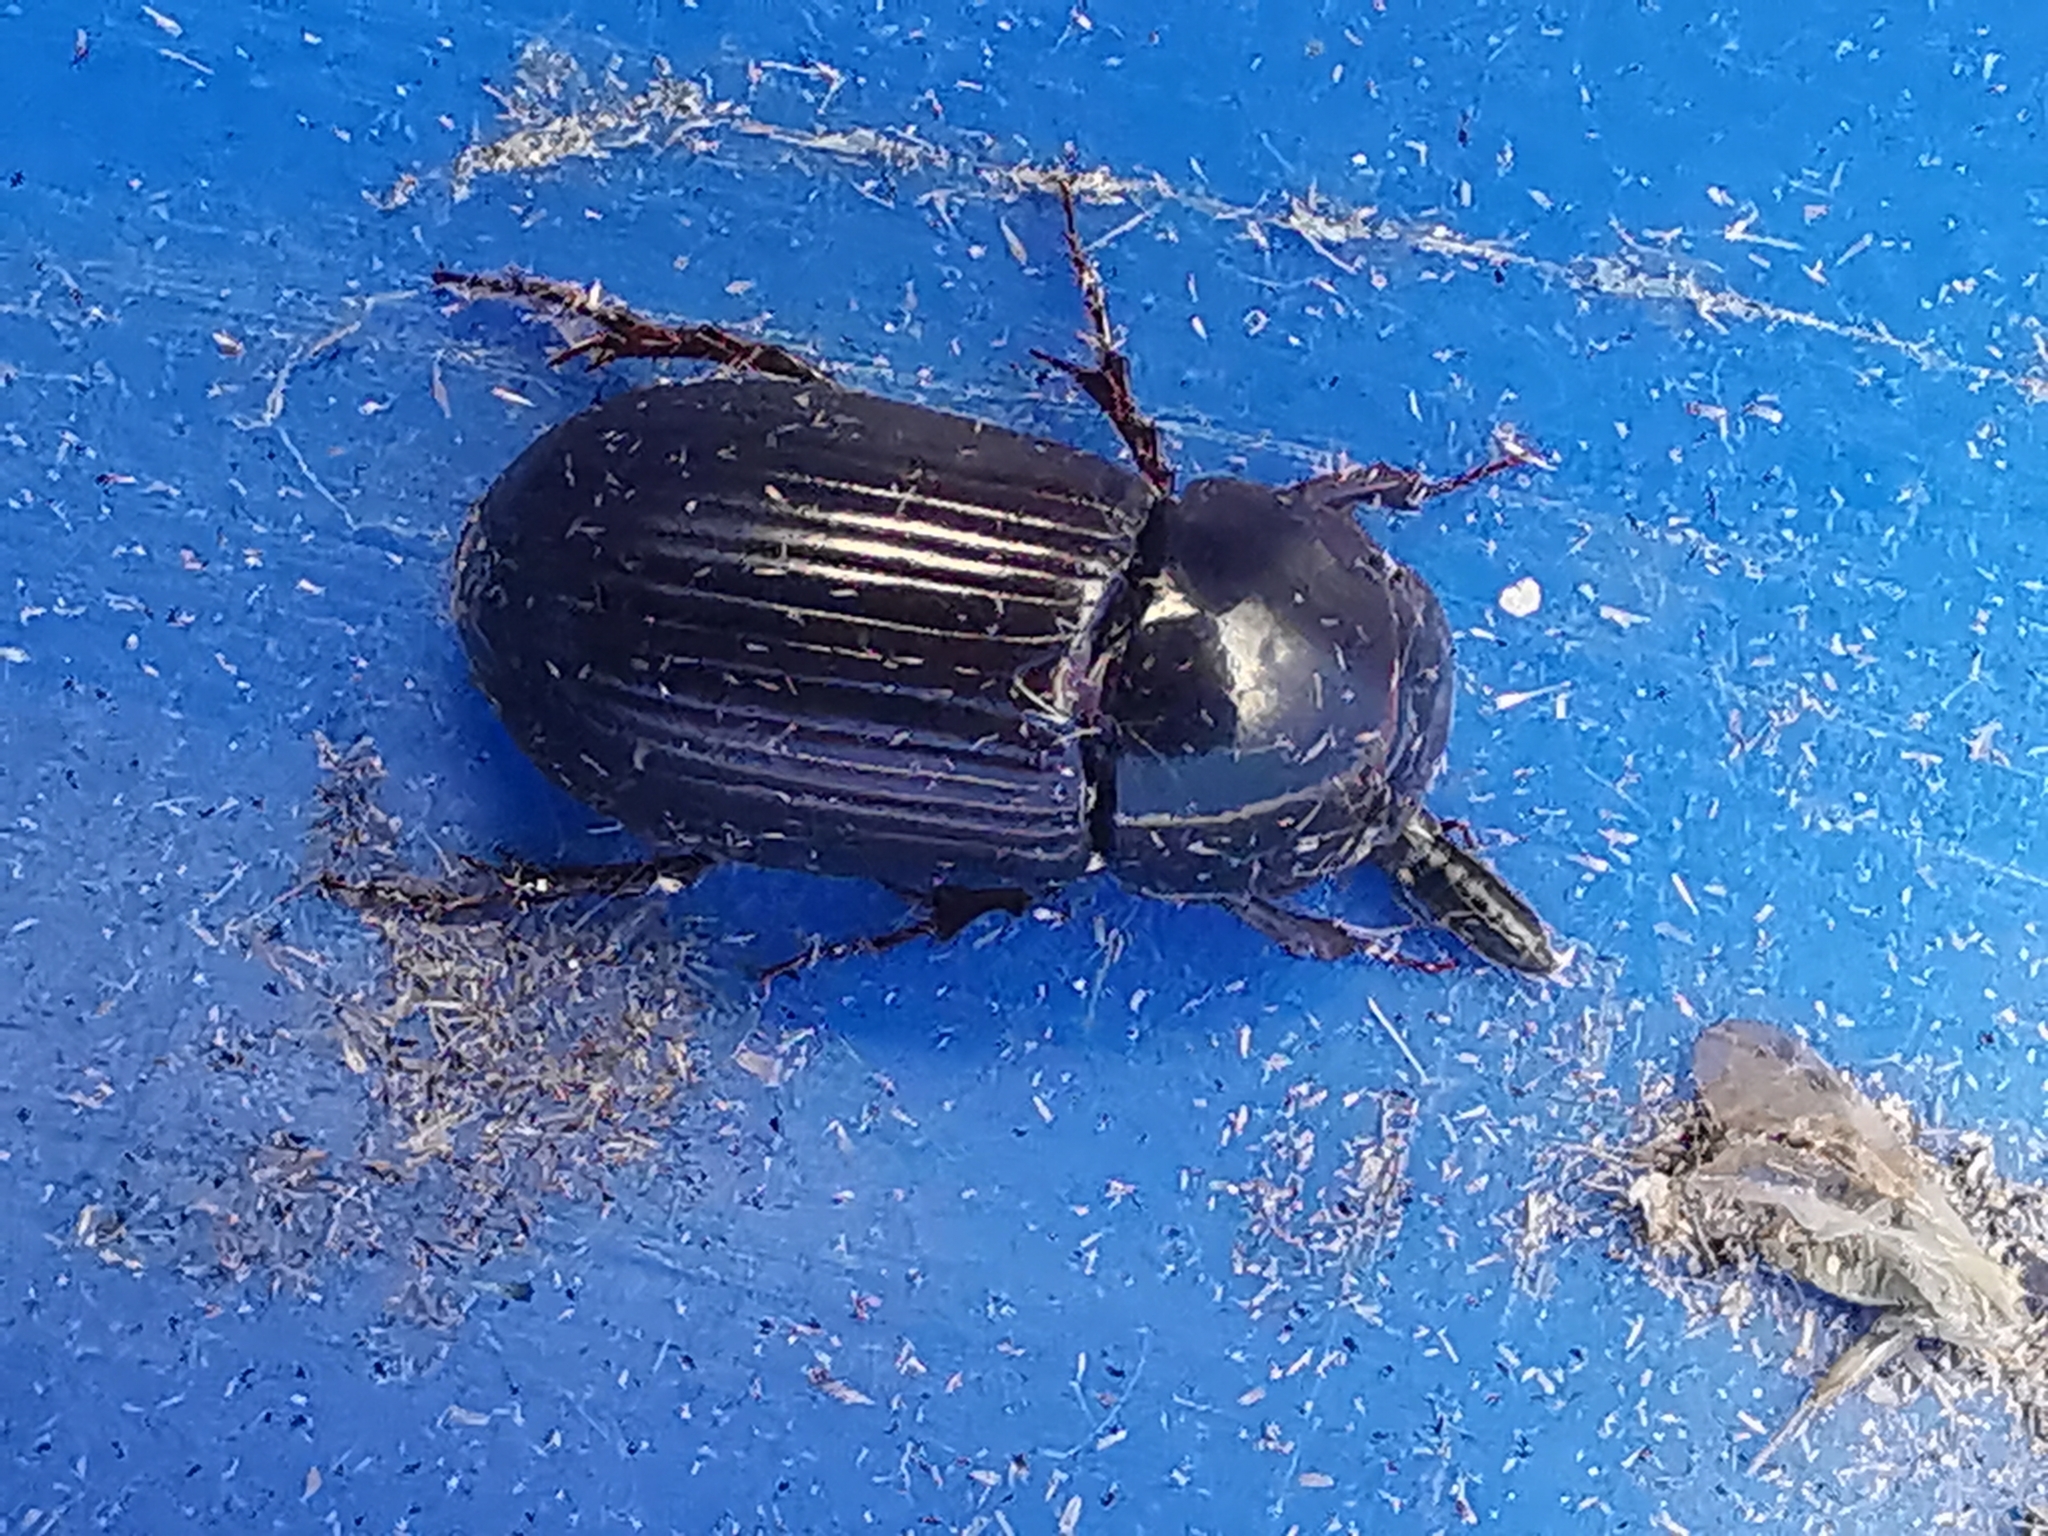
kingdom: Animalia
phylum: Arthropoda
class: Insecta
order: Coleoptera
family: Scarabaeidae
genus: Acrossus
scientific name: Acrossus rufipes
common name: Night-flying dung beetle
